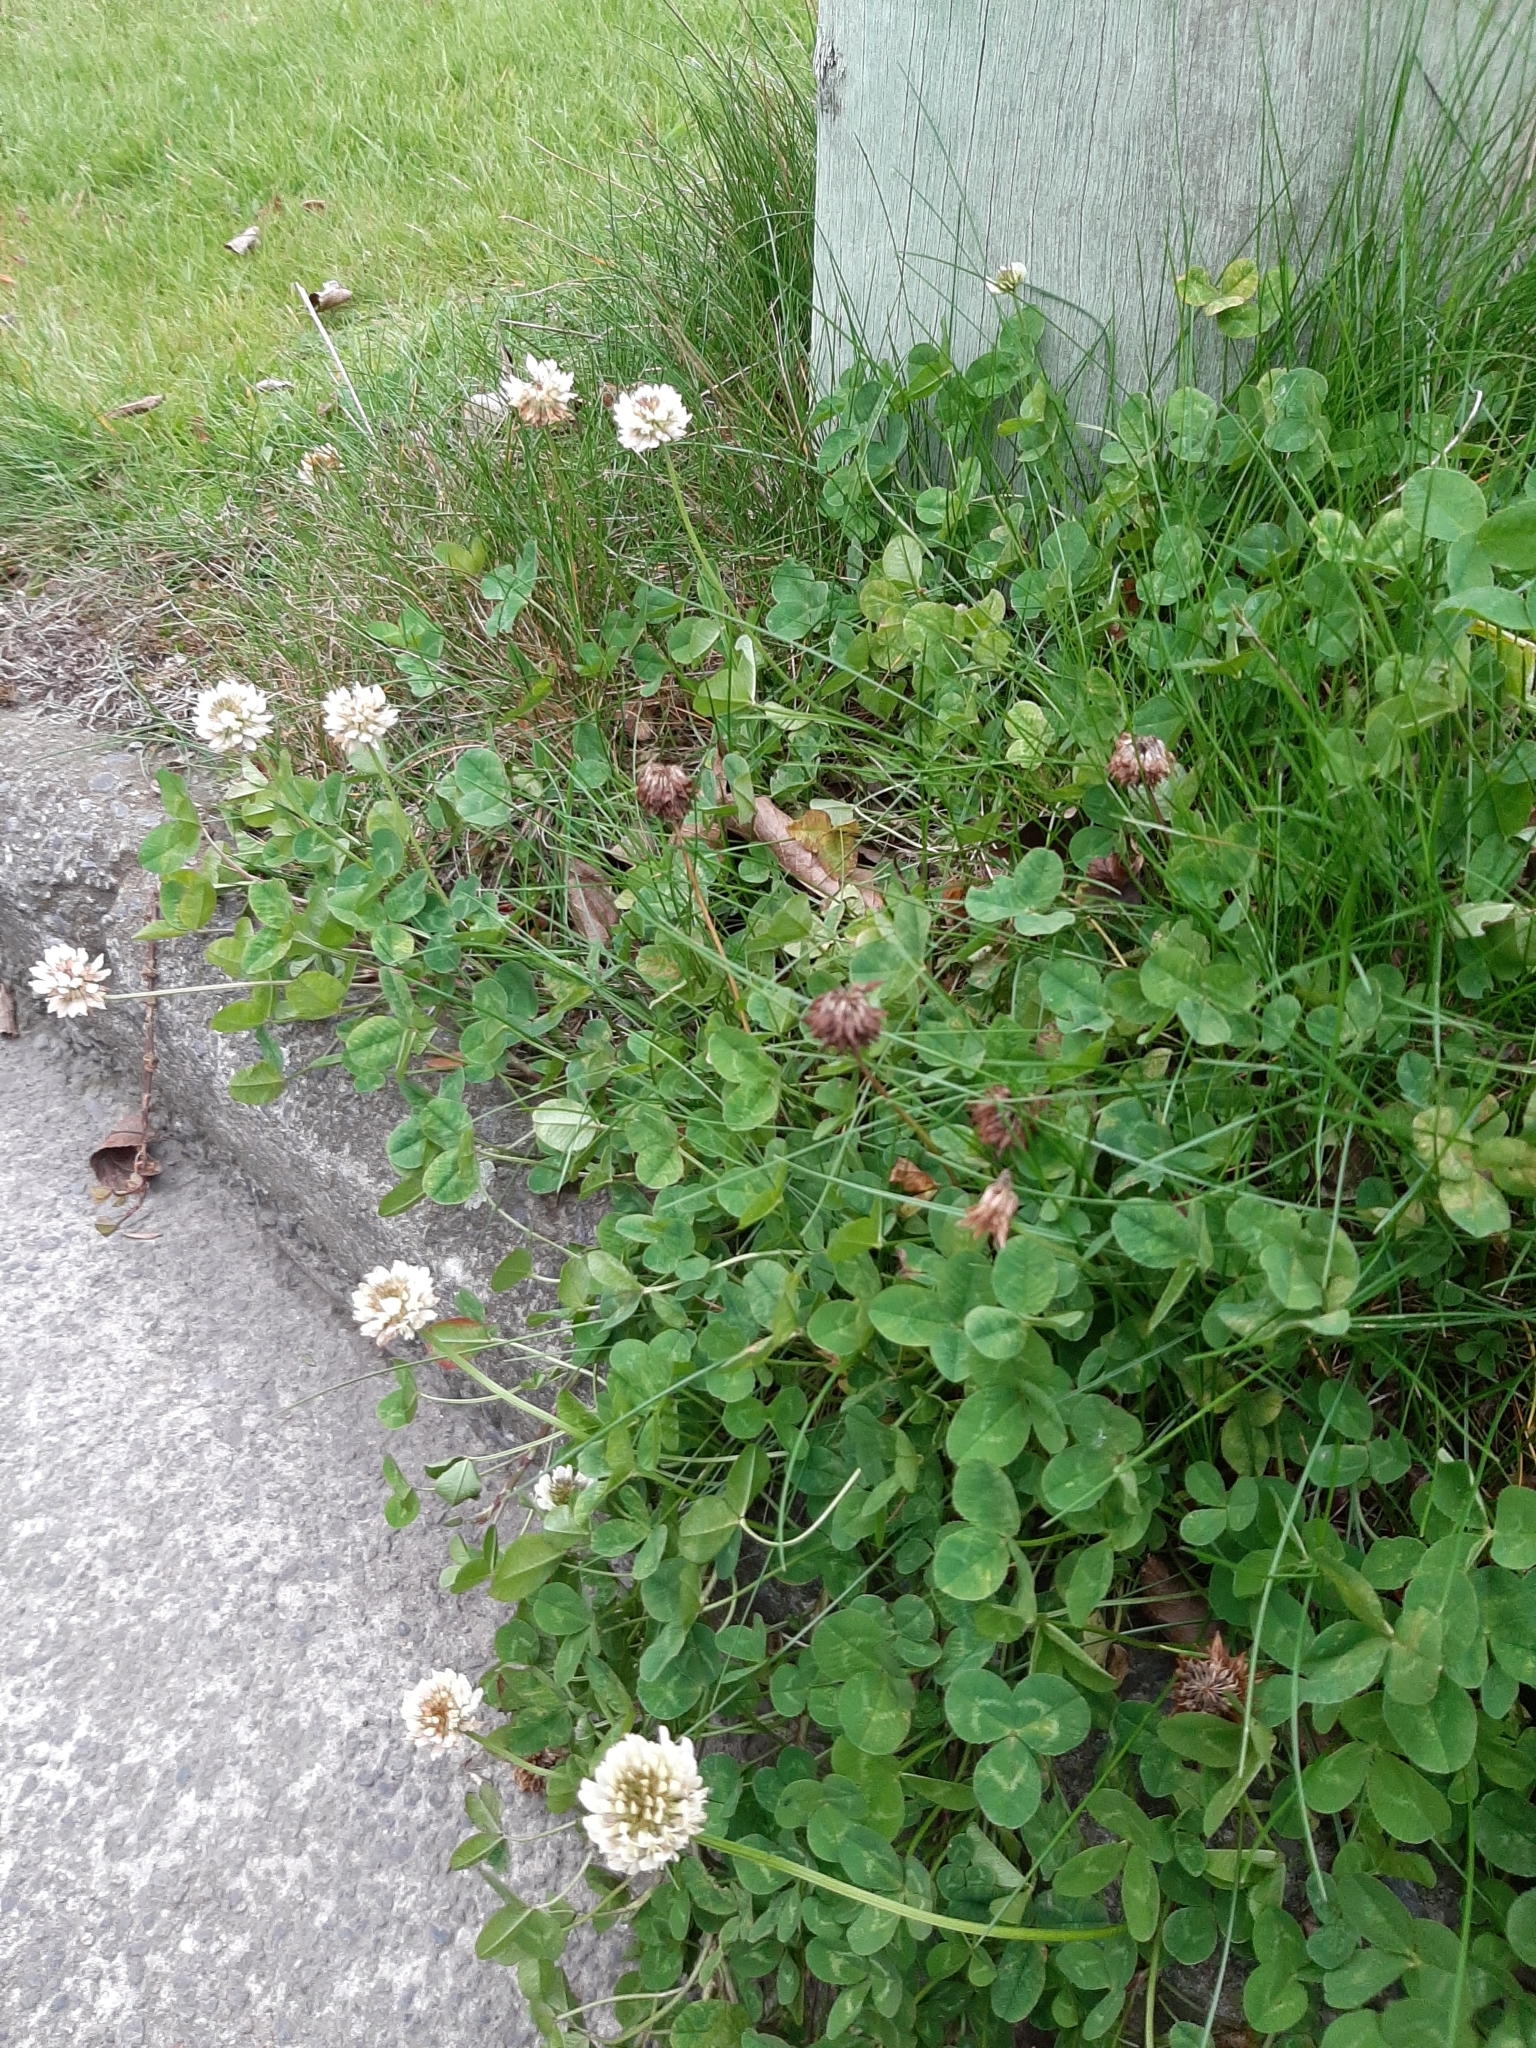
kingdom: Plantae
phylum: Tracheophyta
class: Magnoliopsida
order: Fabales
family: Fabaceae
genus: Trifolium
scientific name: Trifolium repens
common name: White clover
